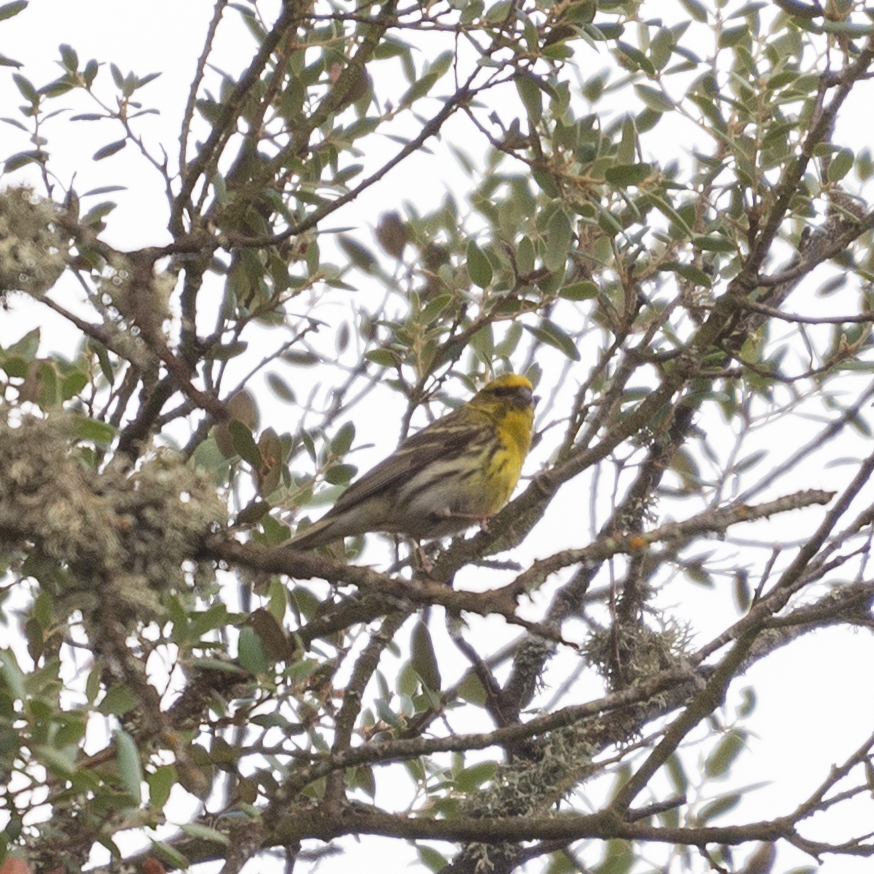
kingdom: Animalia
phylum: Chordata
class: Aves
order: Passeriformes
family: Fringillidae
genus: Serinus
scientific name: Serinus serinus
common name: European serin
